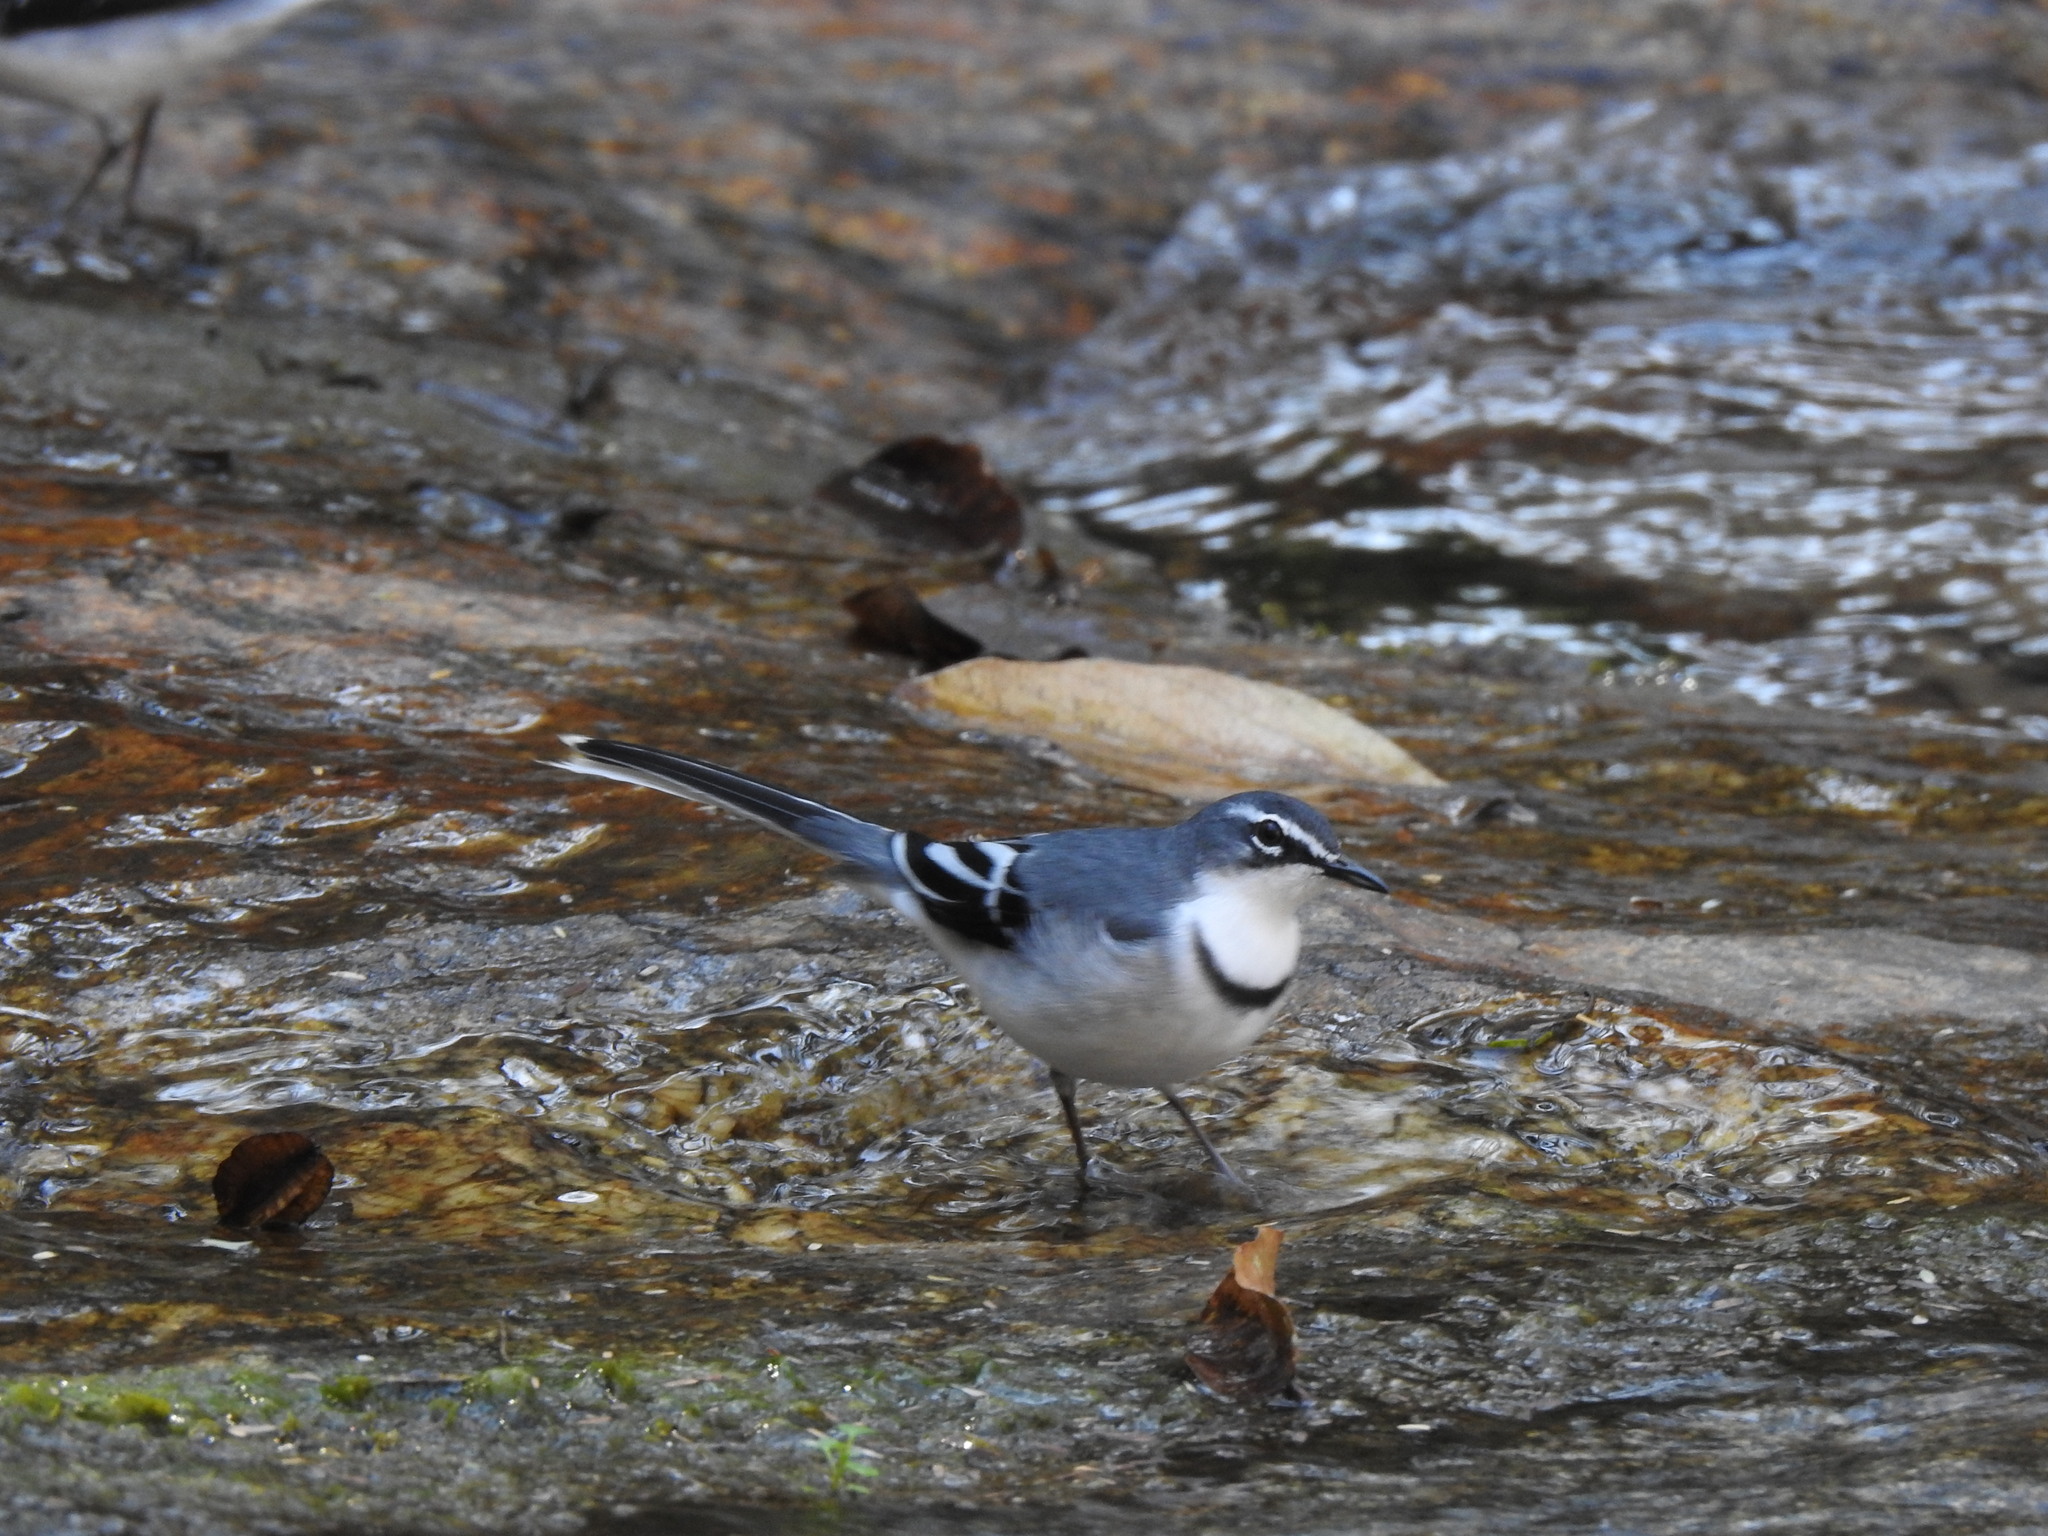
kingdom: Animalia
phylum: Chordata
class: Aves
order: Passeriformes
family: Motacillidae
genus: Motacilla
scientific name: Motacilla clara
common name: Mountain wagtail
